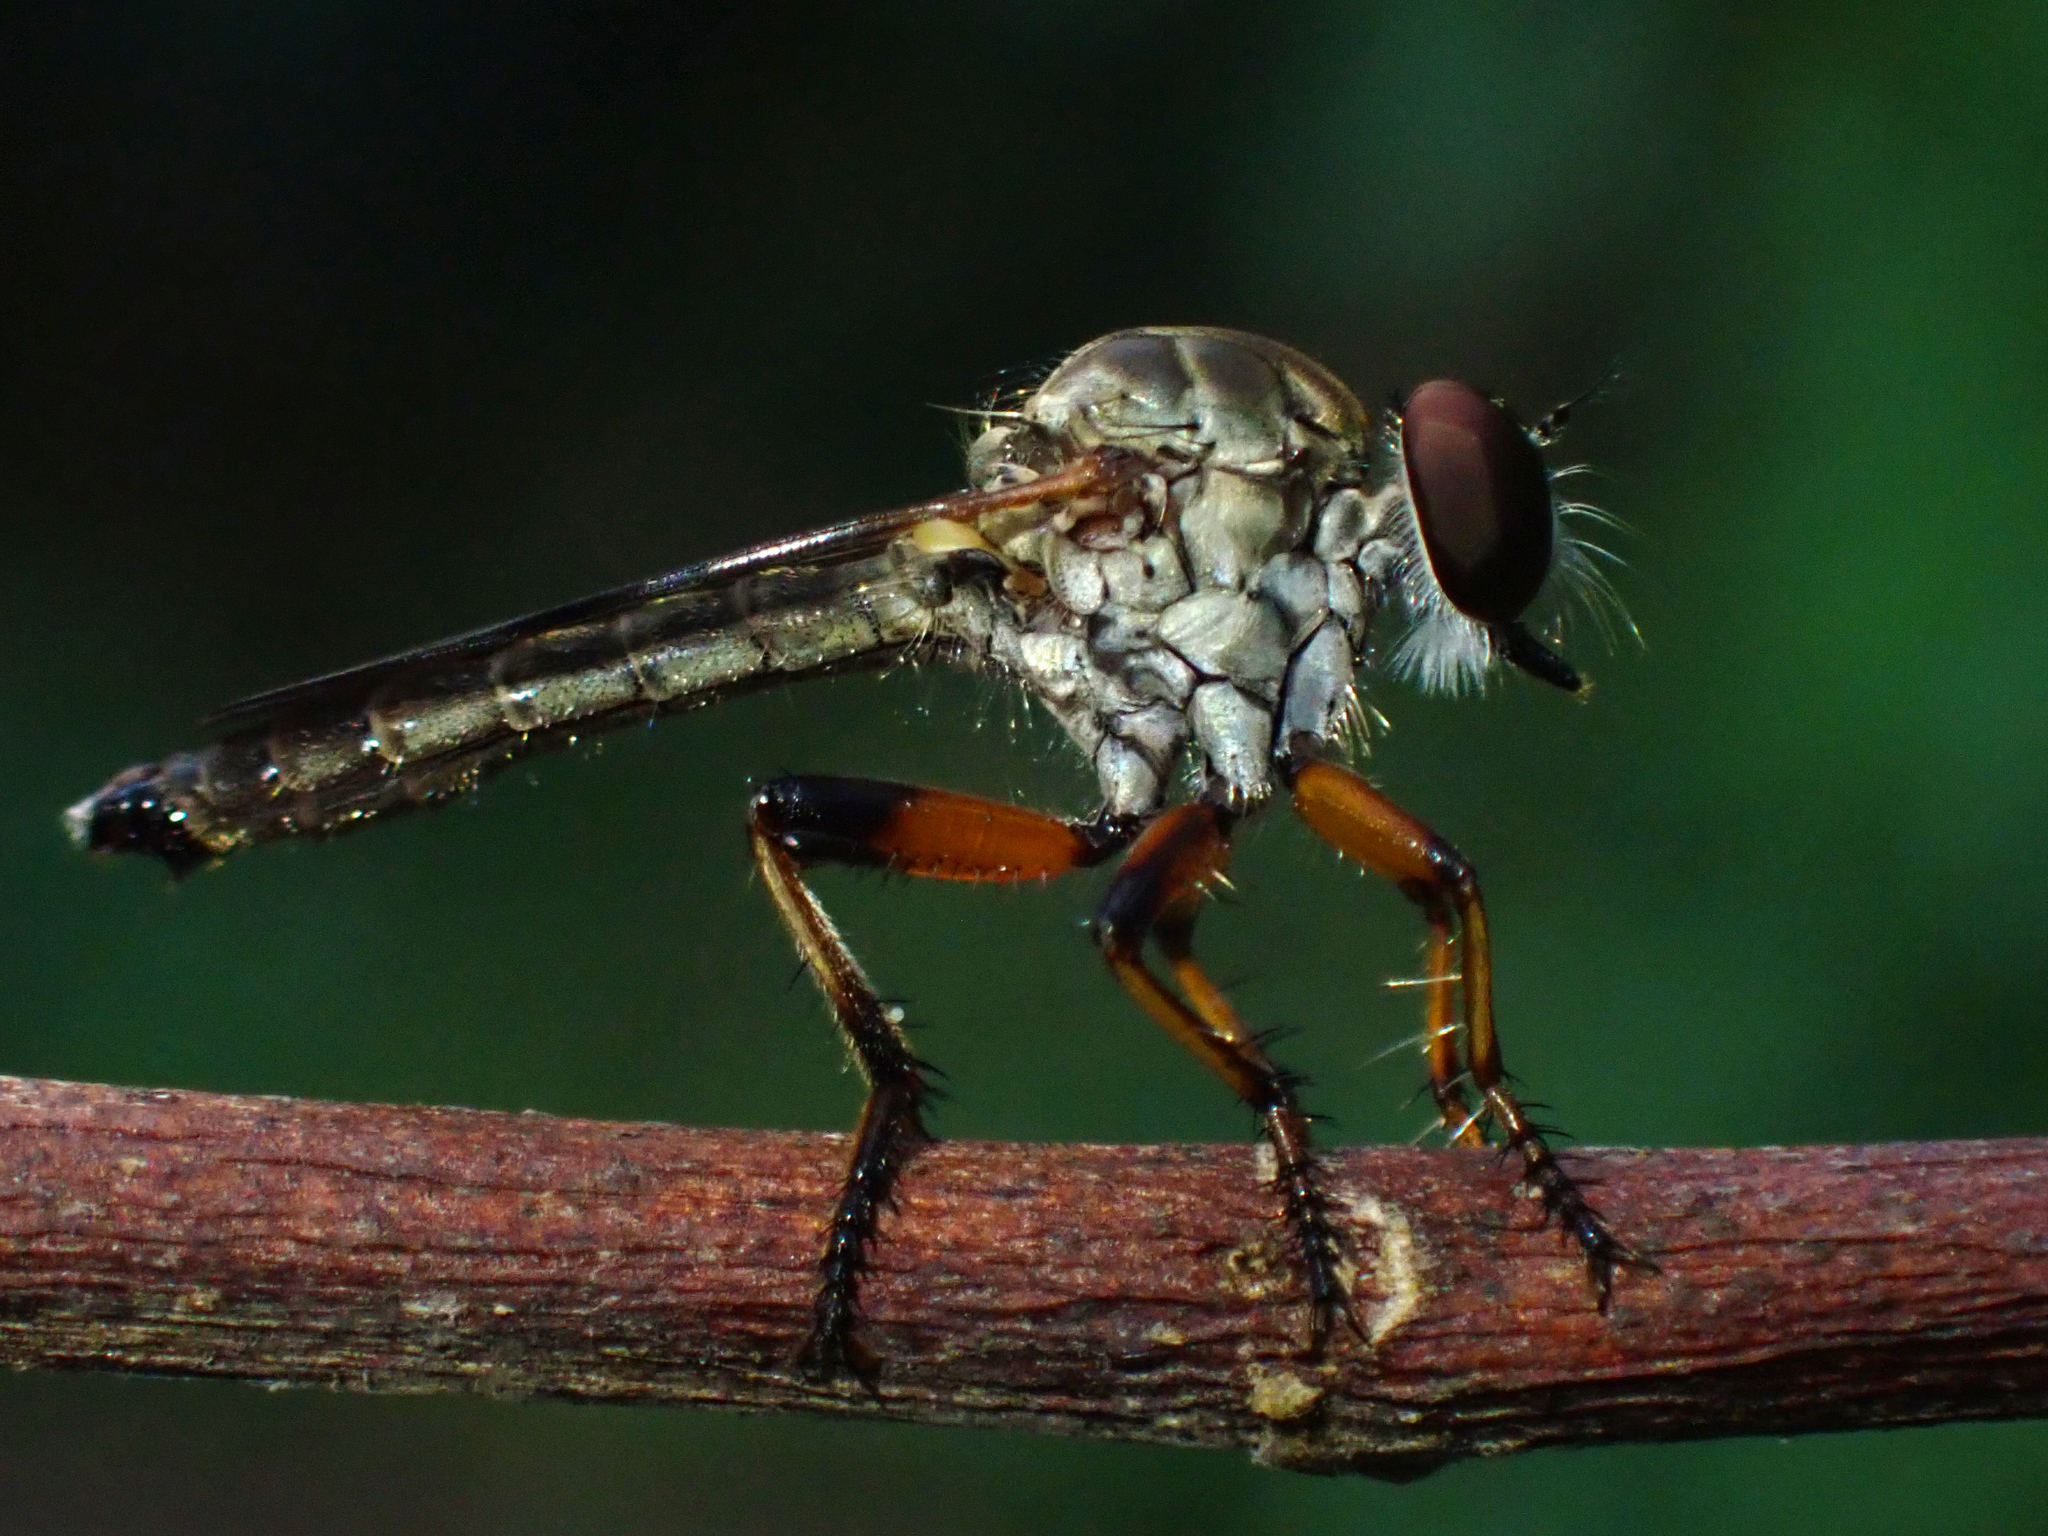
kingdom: Animalia
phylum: Arthropoda
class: Insecta
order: Diptera
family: Asilidae
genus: Ommatius
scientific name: Ommatius floridensis
